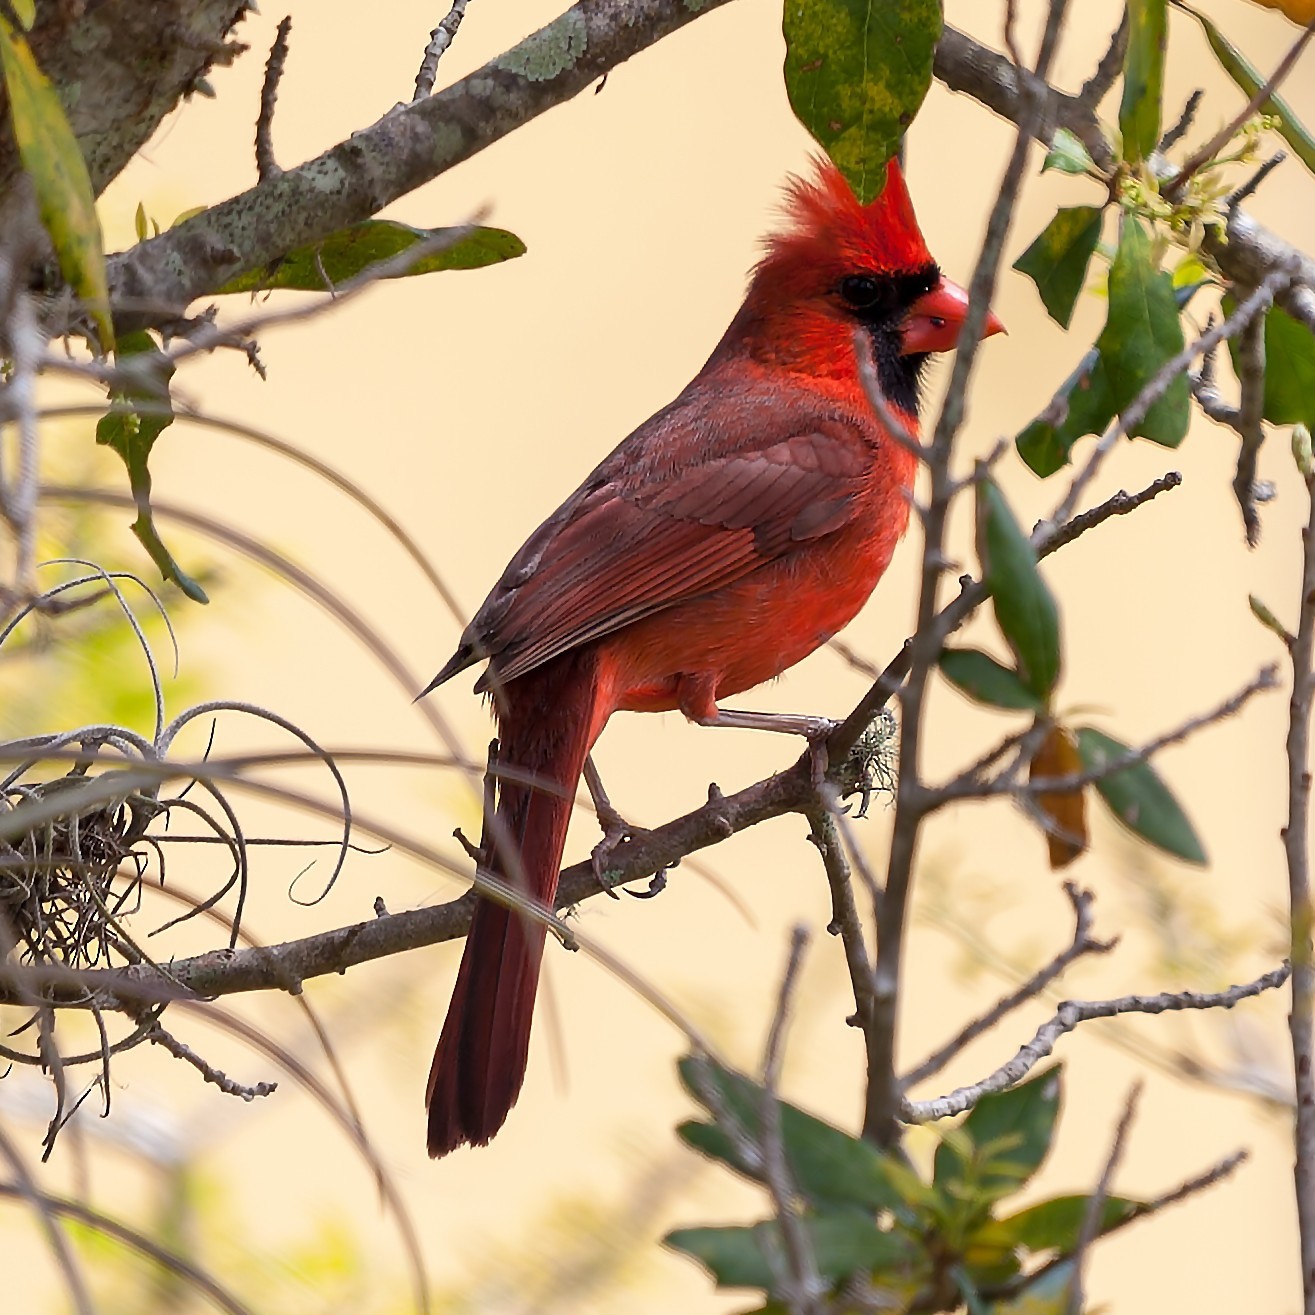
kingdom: Animalia
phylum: Chordata
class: Aves
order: Passeriformes
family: Cardinalidae
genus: Cardinalis
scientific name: Cardinalis cardinalis
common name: Northern cardinal
